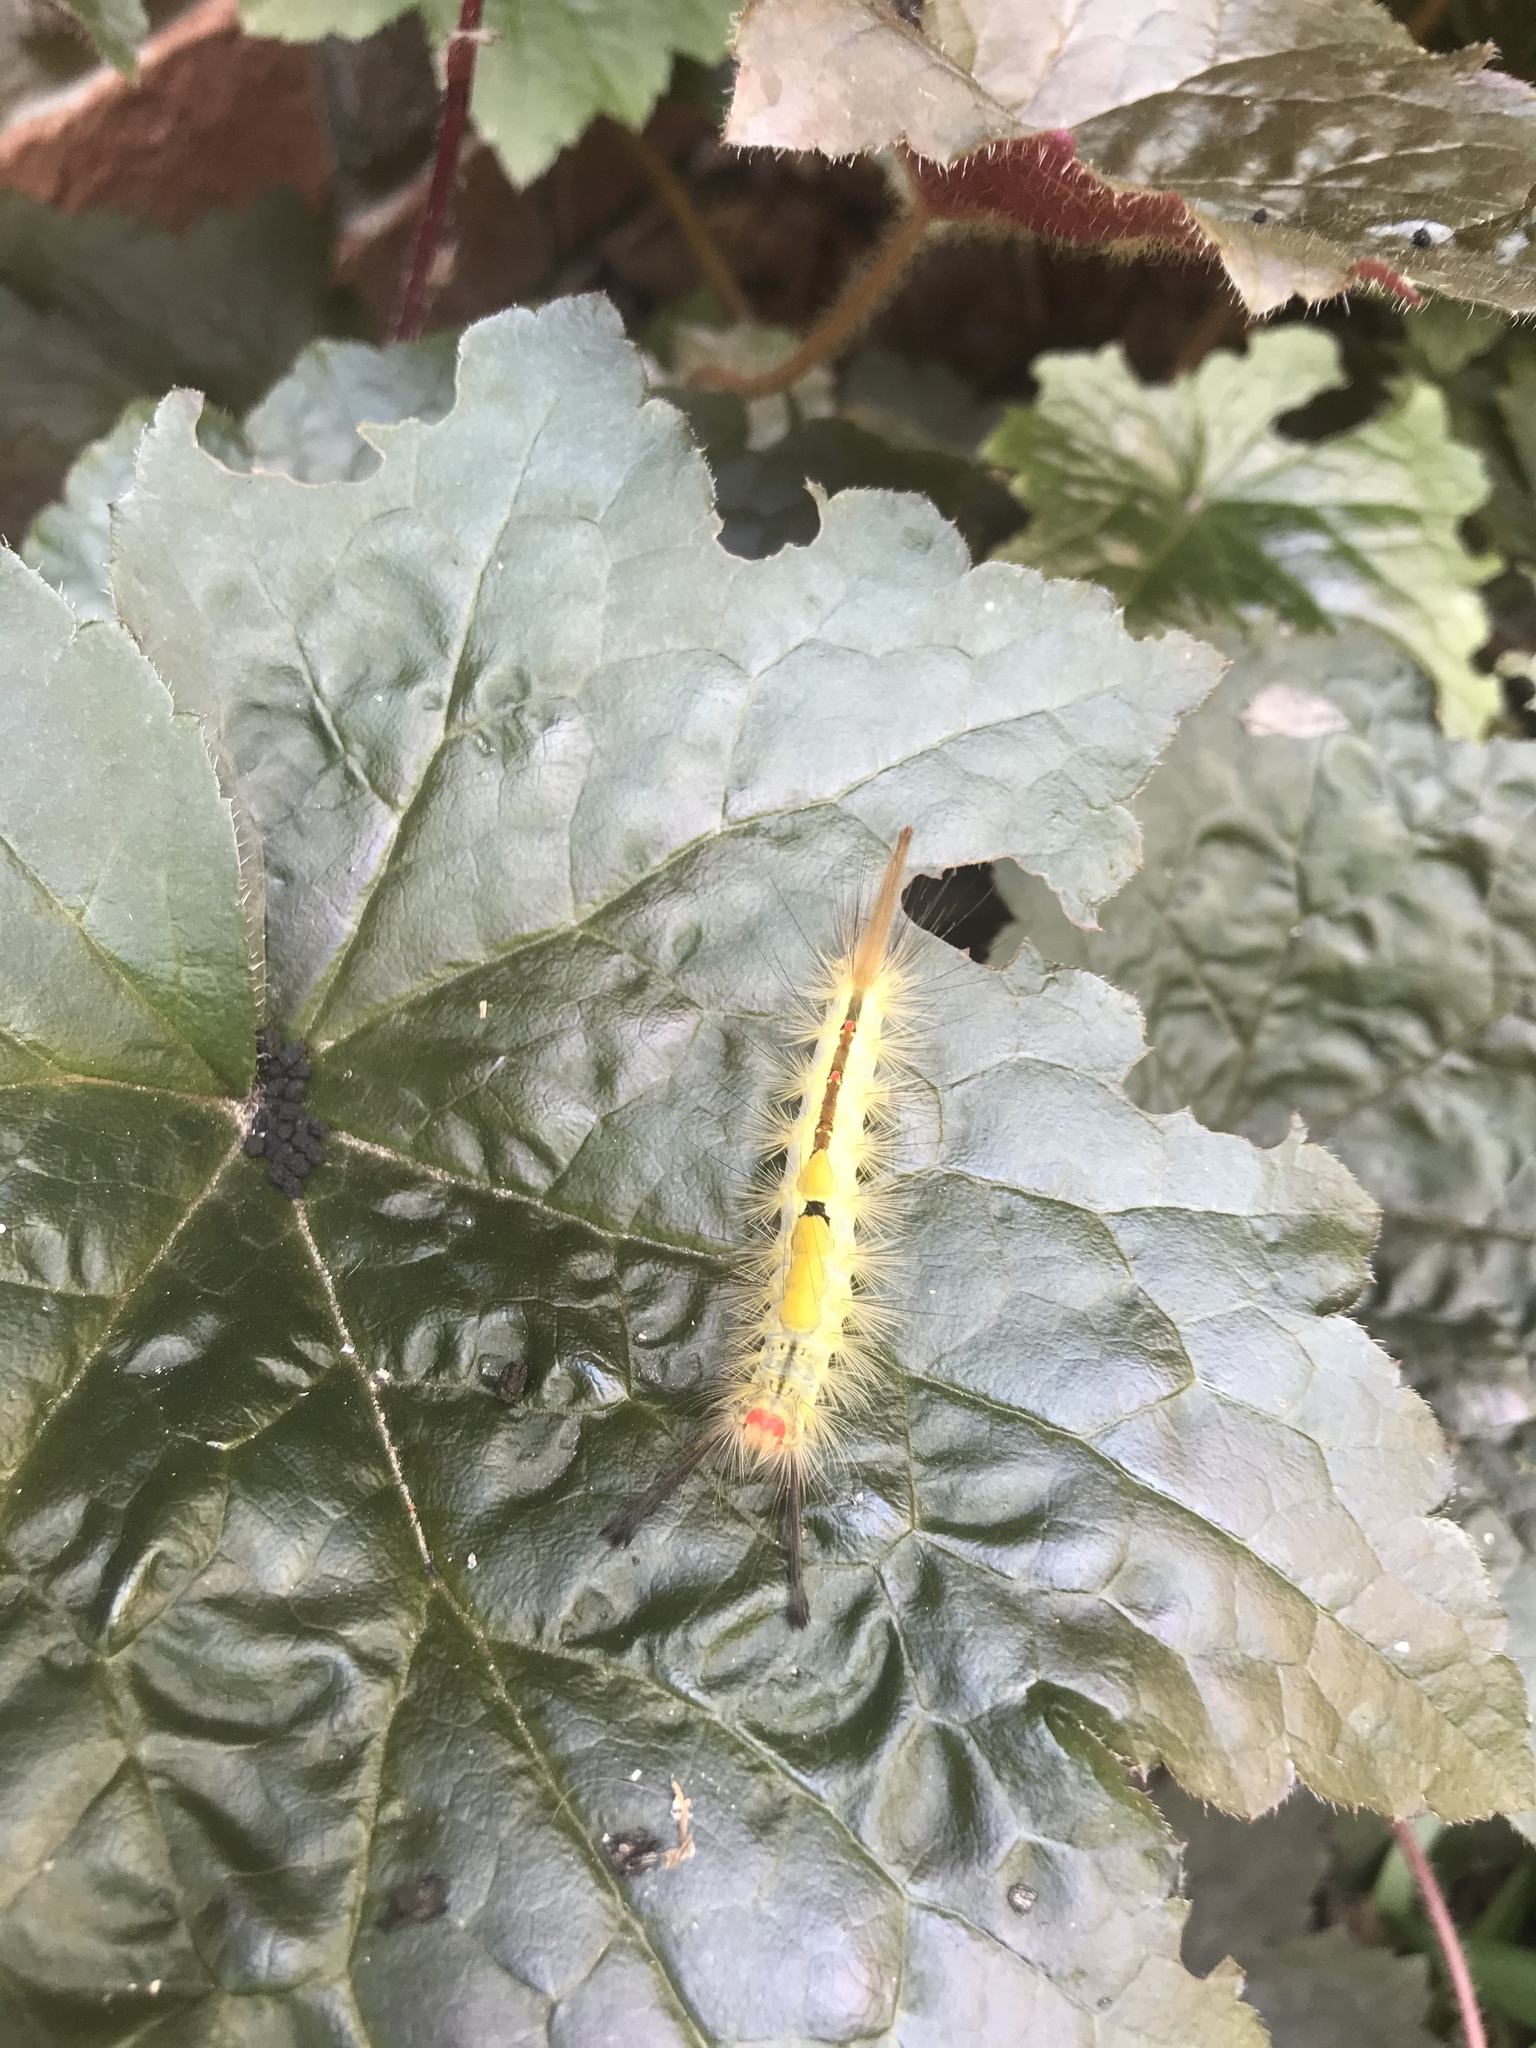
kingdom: Animalia
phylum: Arthropoda
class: Insecta
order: Lepidoptera
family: Erebidae
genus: Orgyia
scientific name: Orgyia leucostigma
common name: White-marked tussock moth
